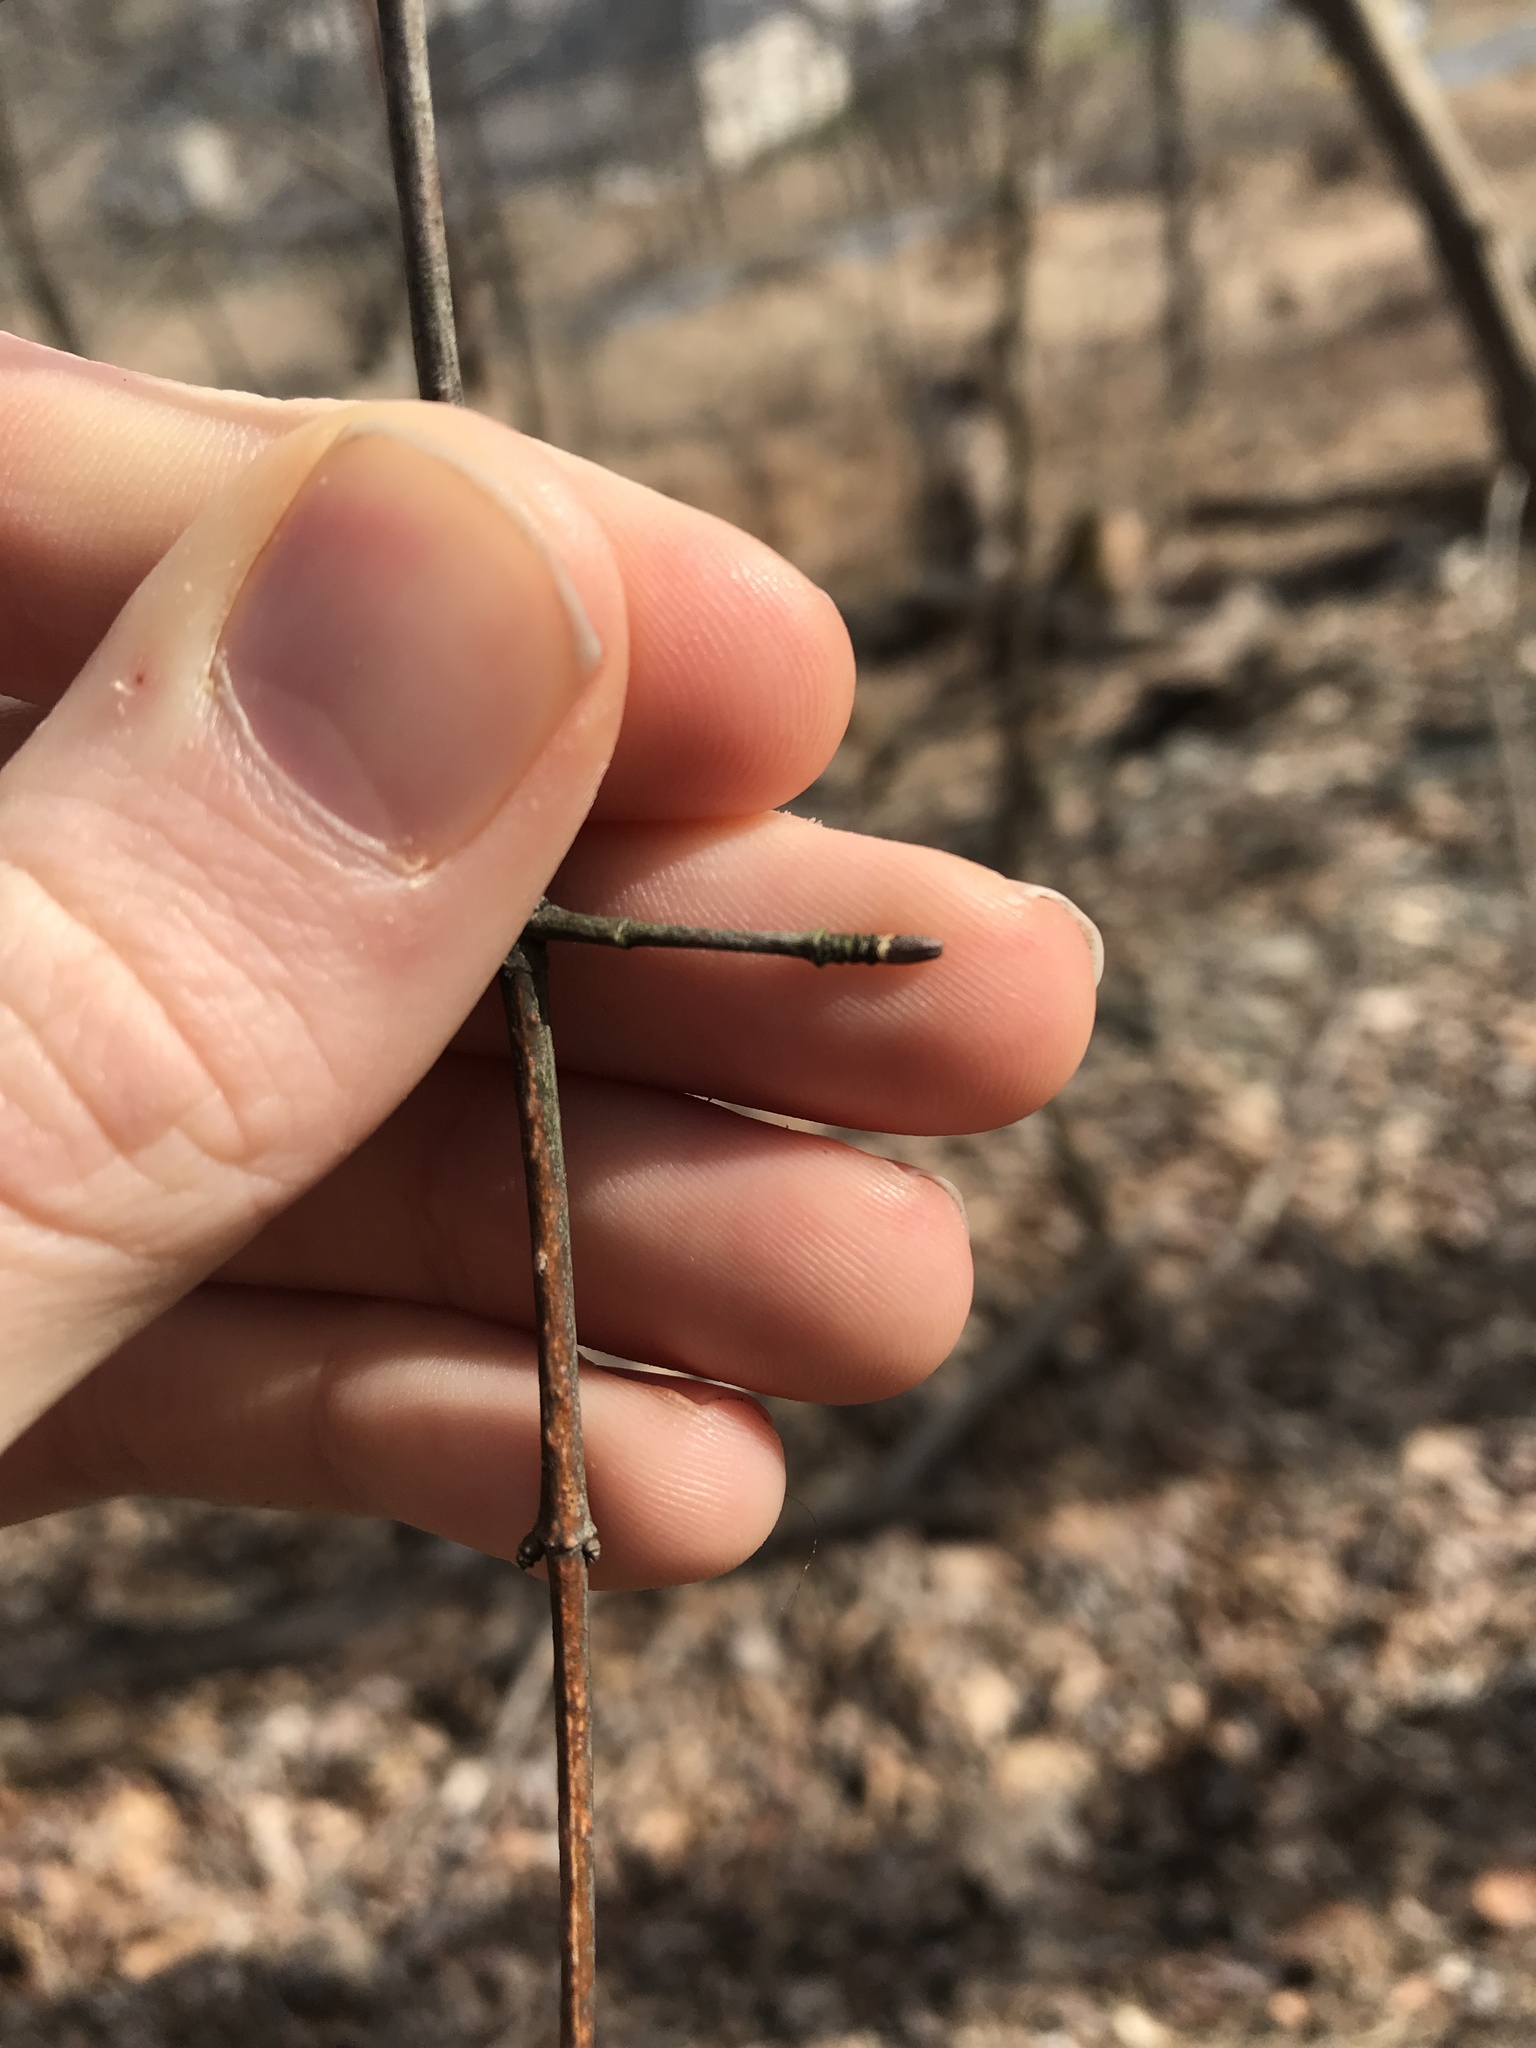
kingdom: Plantae
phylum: Tracheophyta
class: Magnoliopsida
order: Dipsacales
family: Viburnaceae
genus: Viburnum
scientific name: Viburnum prunifolium
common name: Black haw
